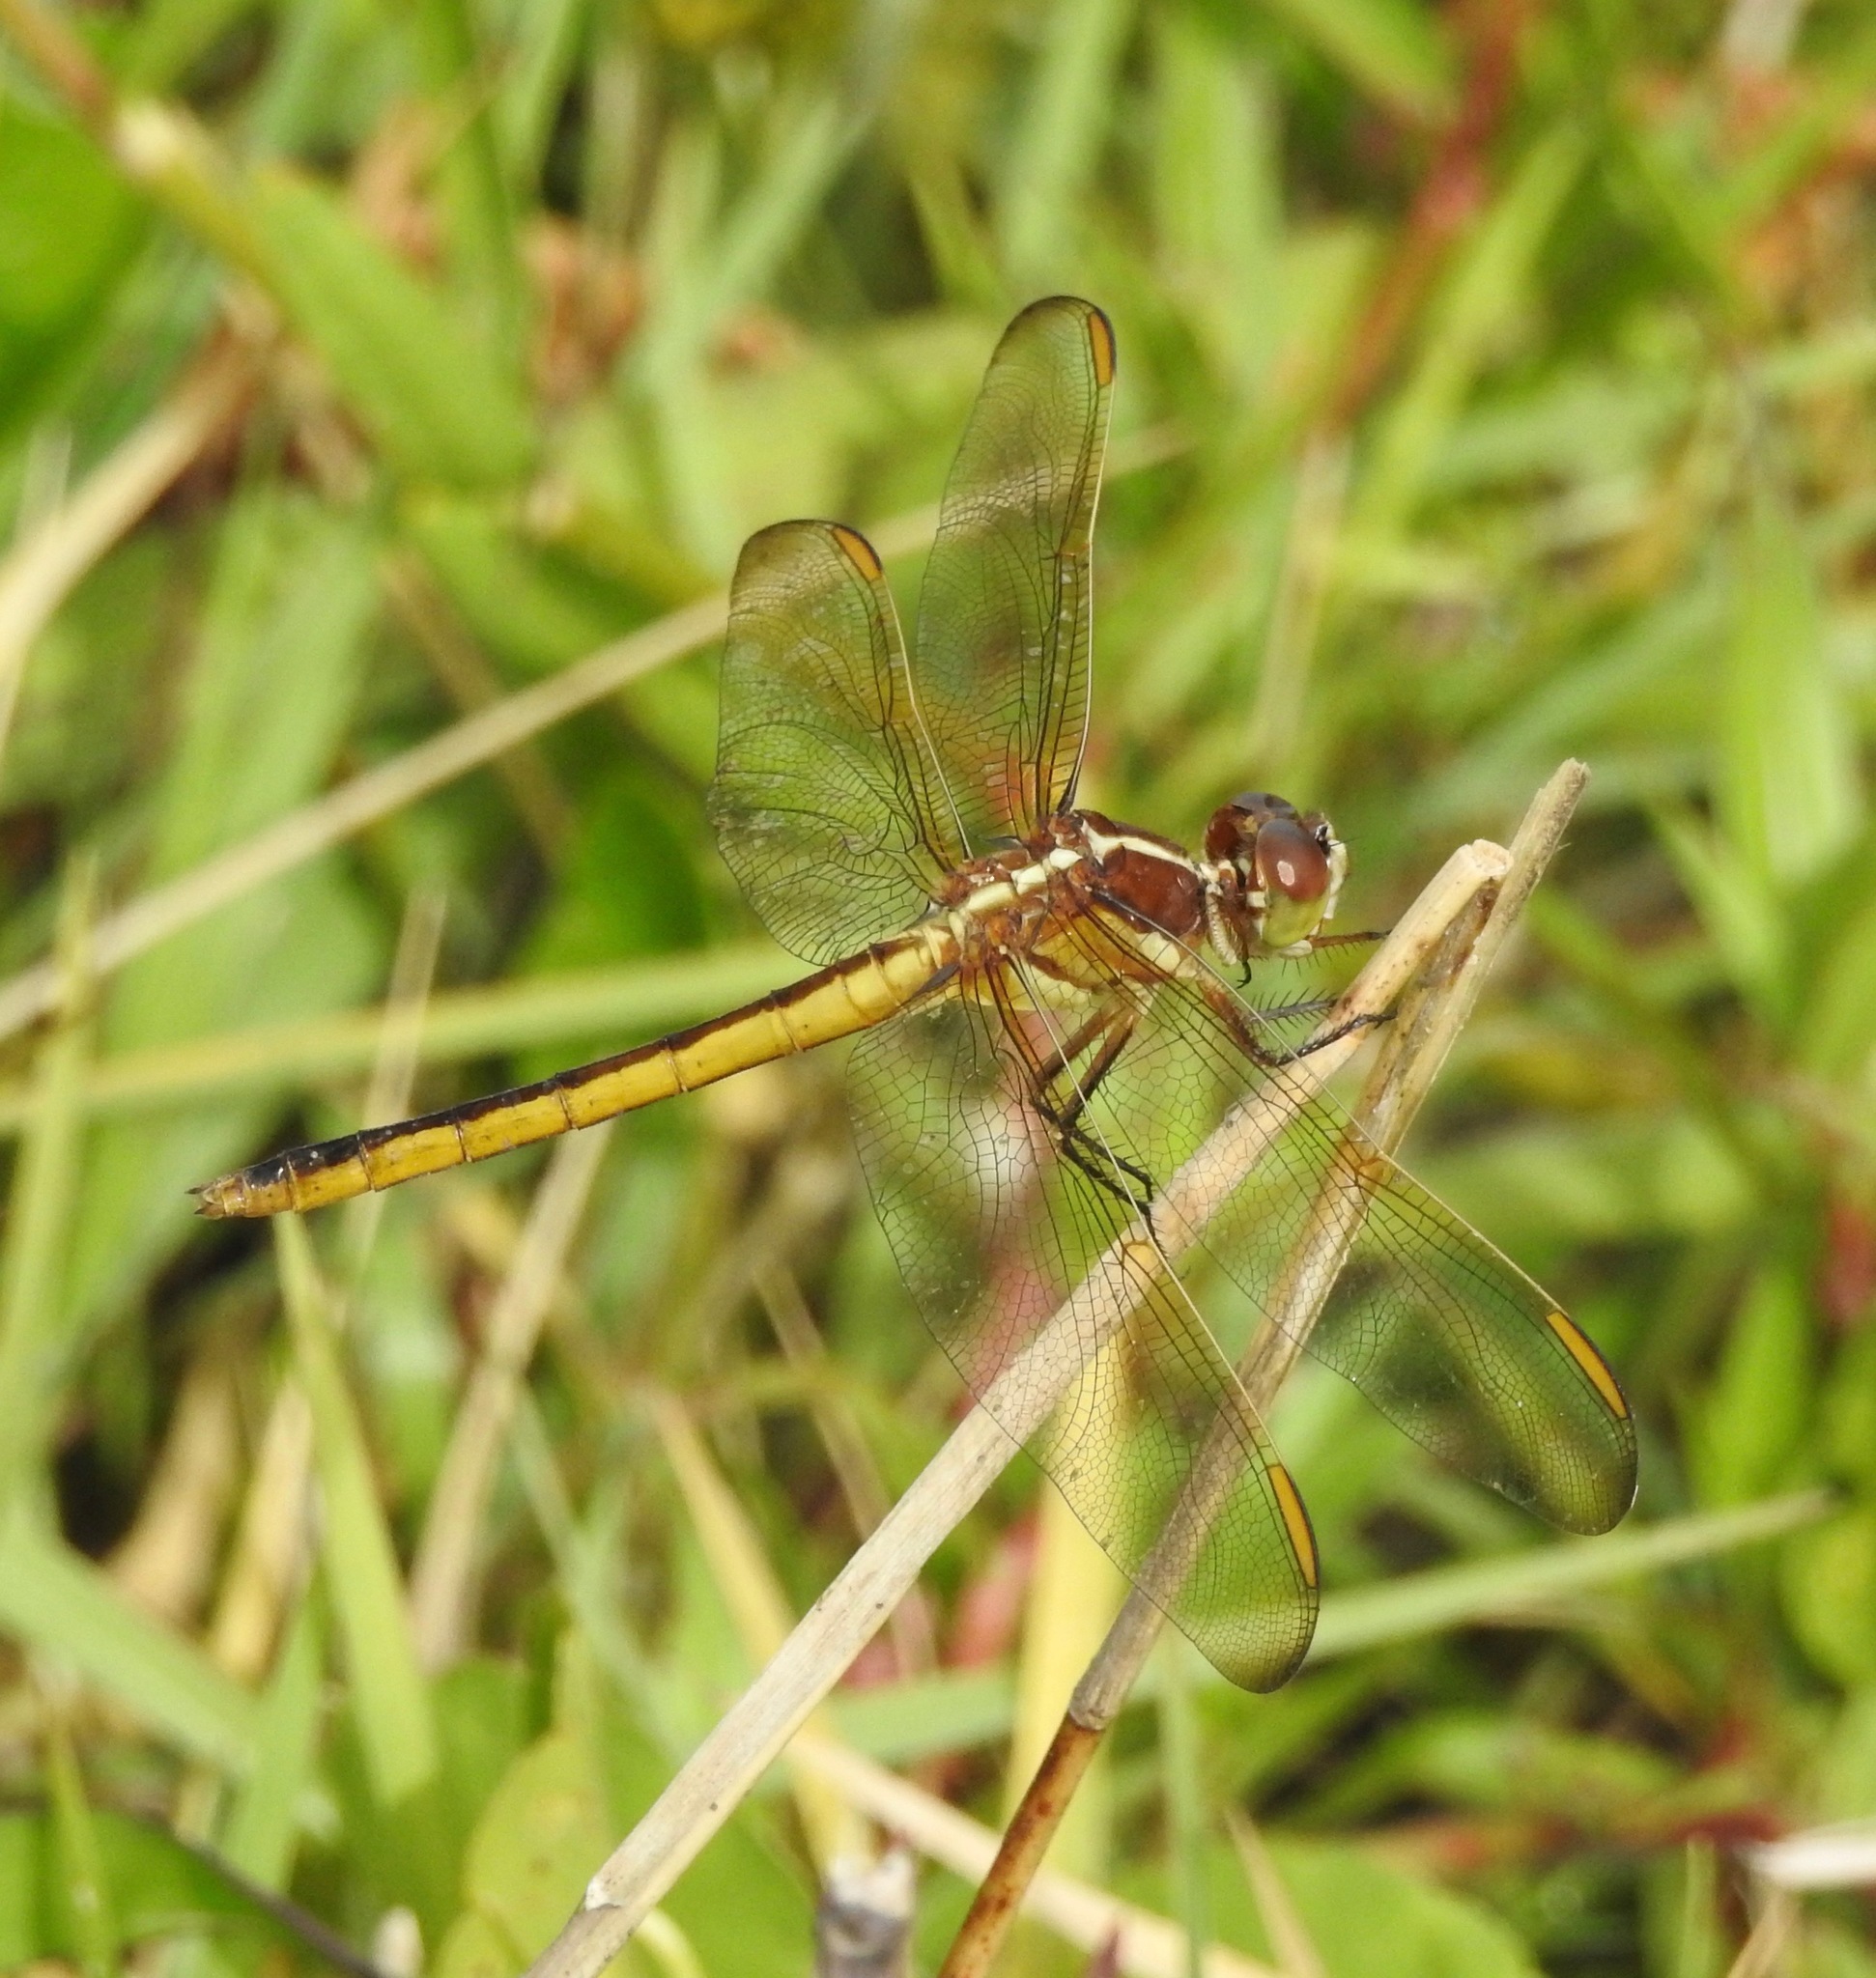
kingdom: Animalia
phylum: Arthropoda
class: Insecta
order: Odonata
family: Libellulidae
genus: Libellula
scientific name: Libellula auripennis
